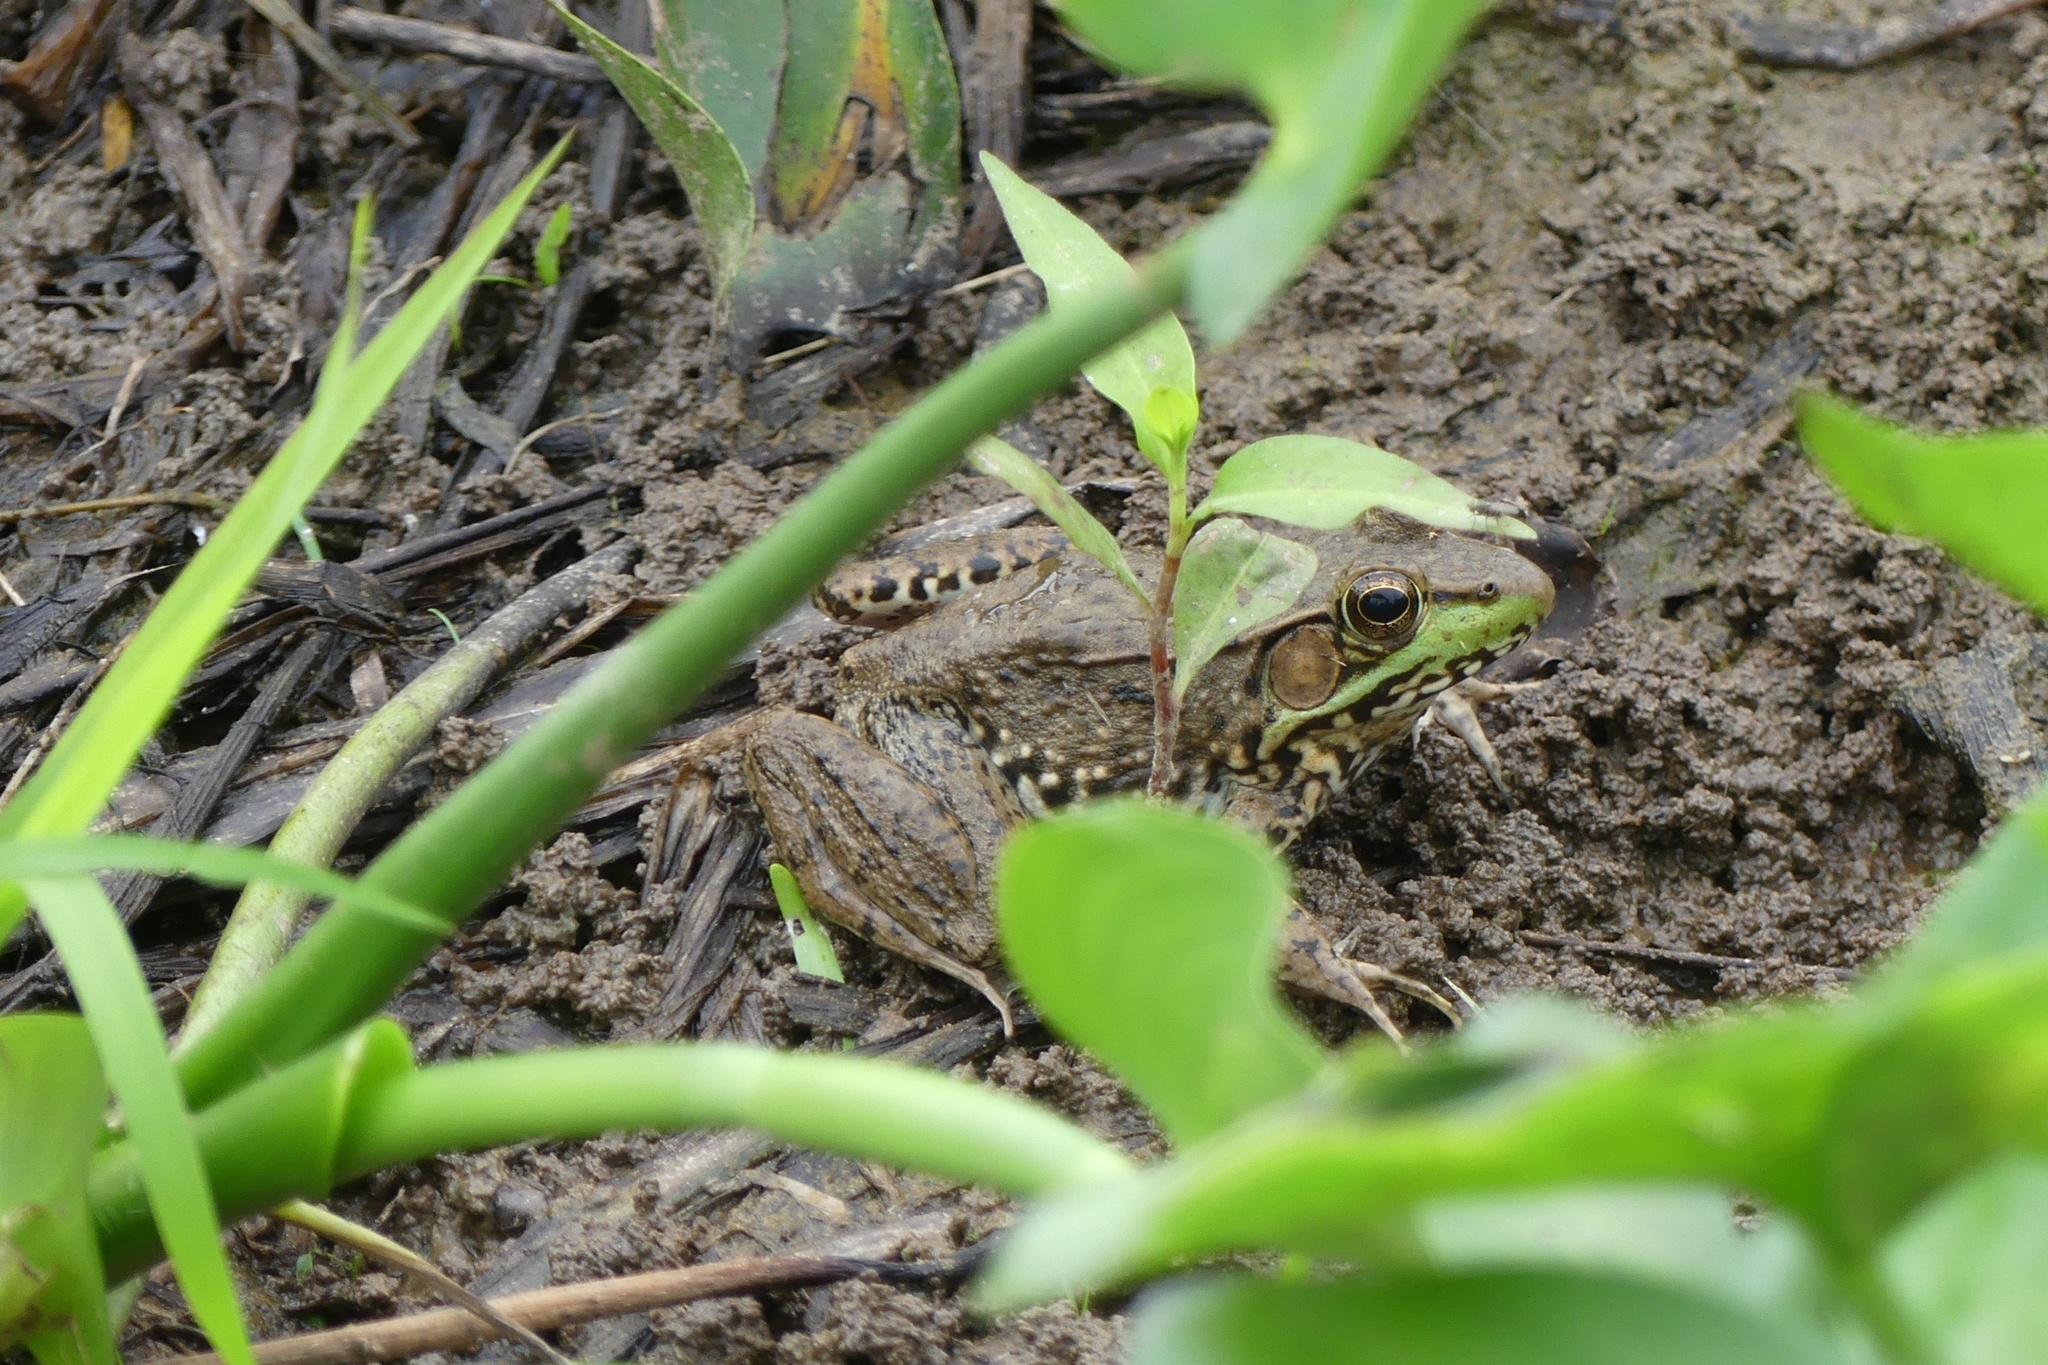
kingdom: Animalia
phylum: Chordata
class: Amphibia
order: Anura
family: Ranidae
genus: Lithobates
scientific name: Lithobates clamitans
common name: Green frog
